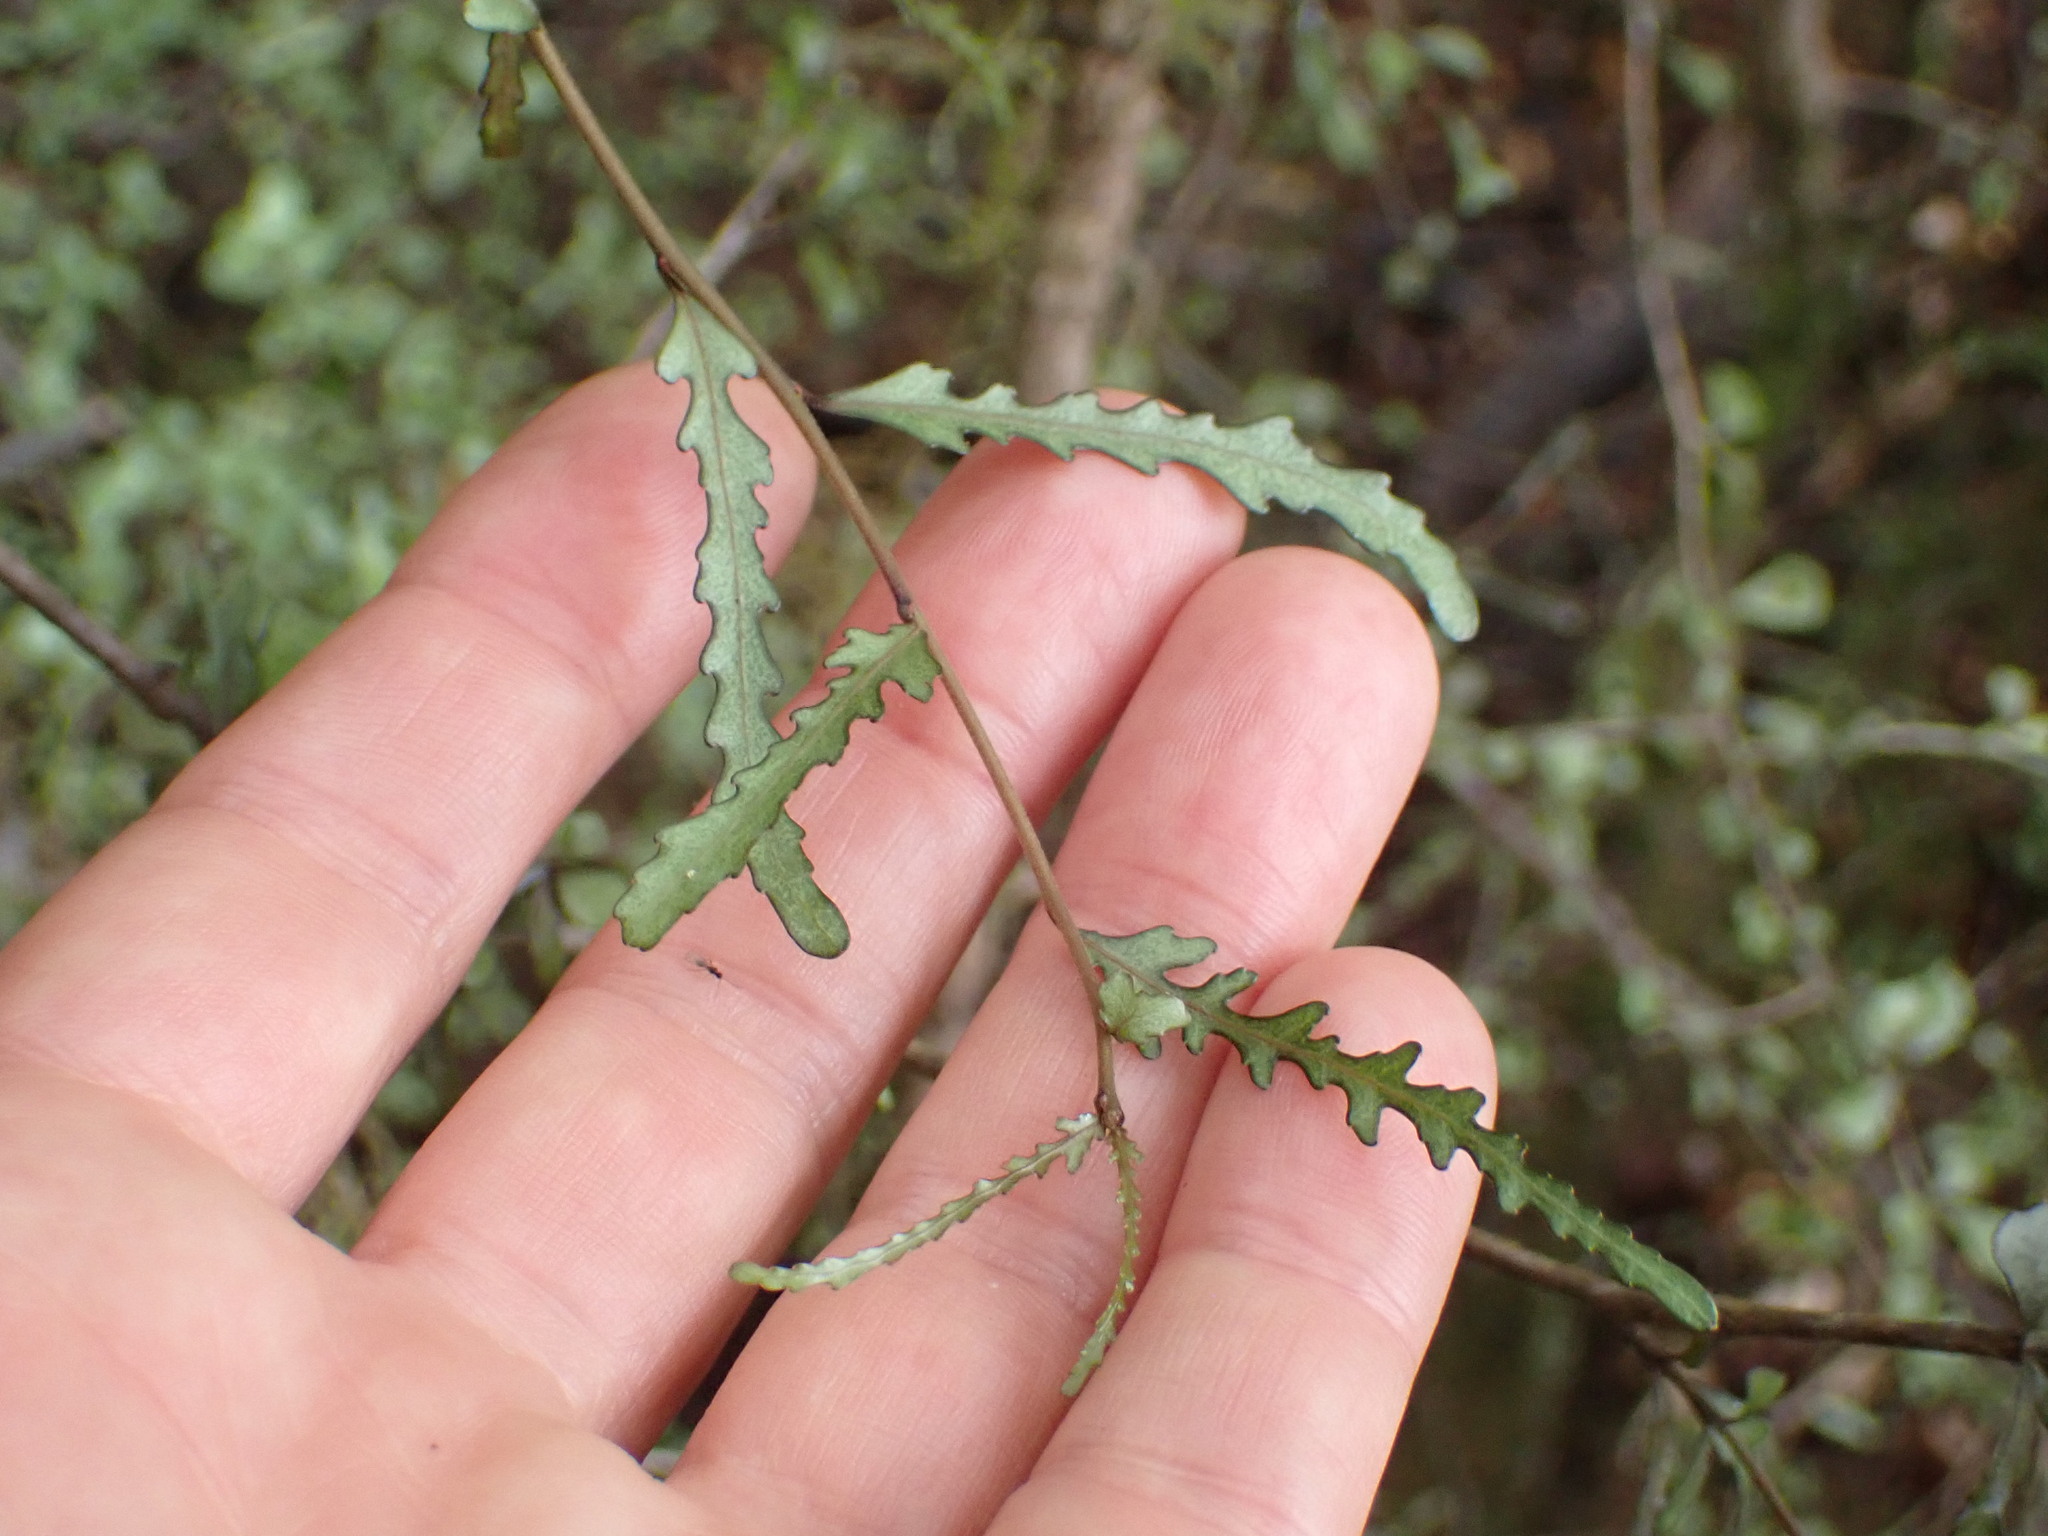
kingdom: Plantae
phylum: Tracheophyta
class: Magnoliopsida
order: Oxalidales
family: Elaeocarpaceae
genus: Elaeocarpus
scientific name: Elaeocarpus hookerianus
